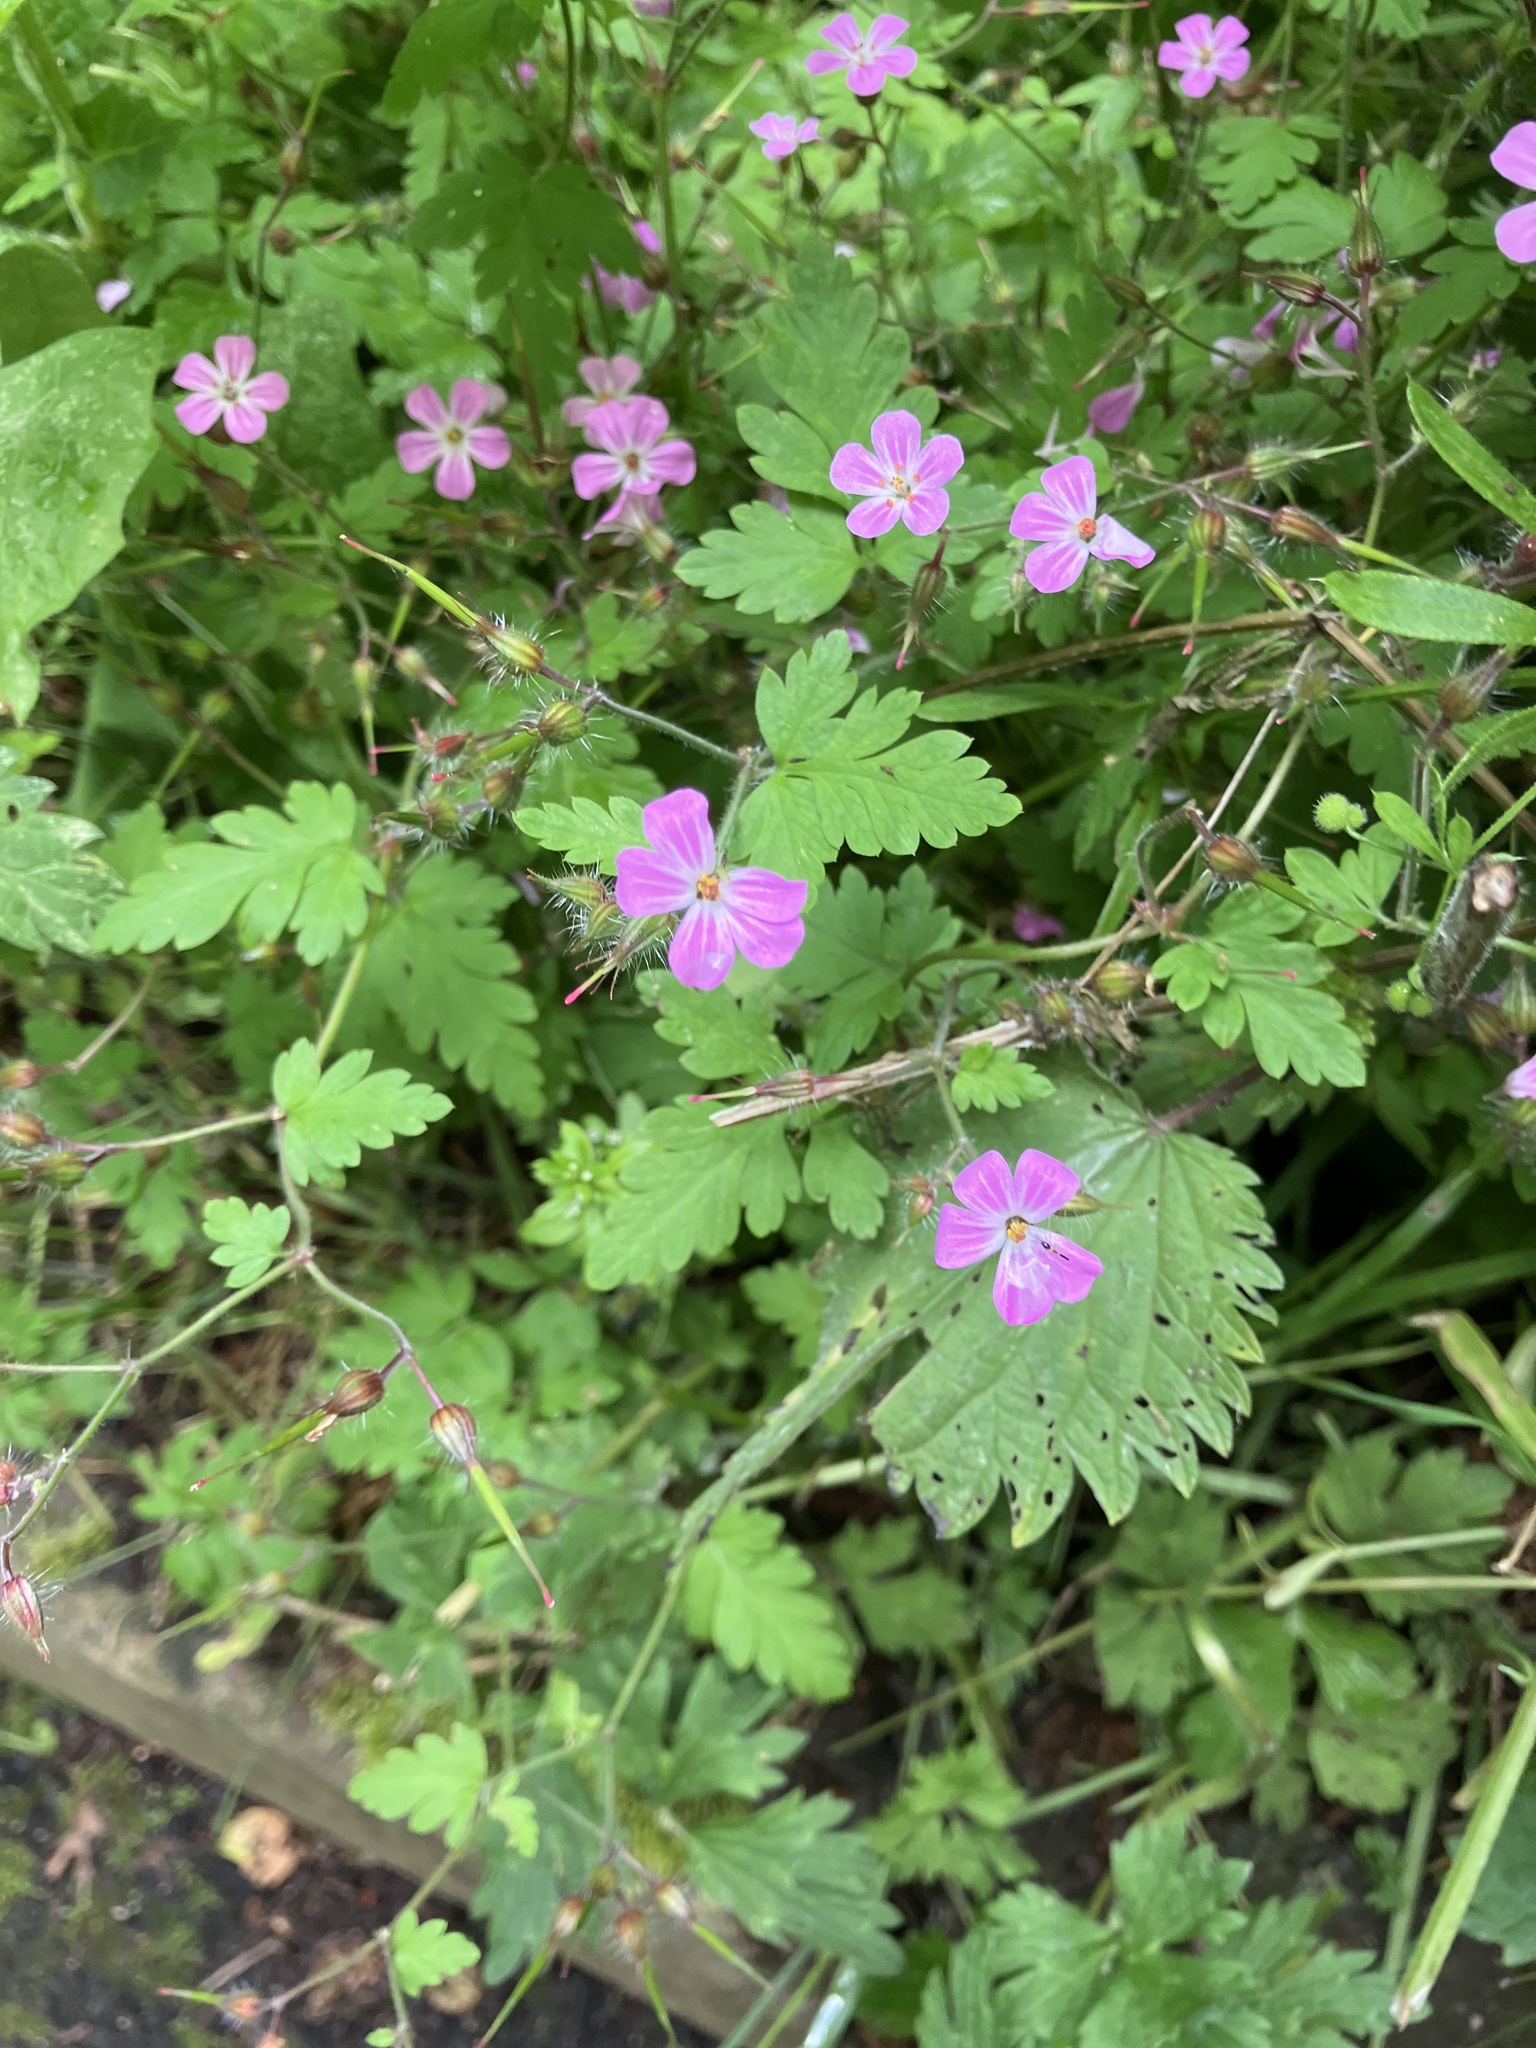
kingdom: Plantae
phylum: Tracheophyta
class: Magnoliopsida
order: Geraniales
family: Geraniaceae
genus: Geranium
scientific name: Geranium robertianum
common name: Herb-robert
